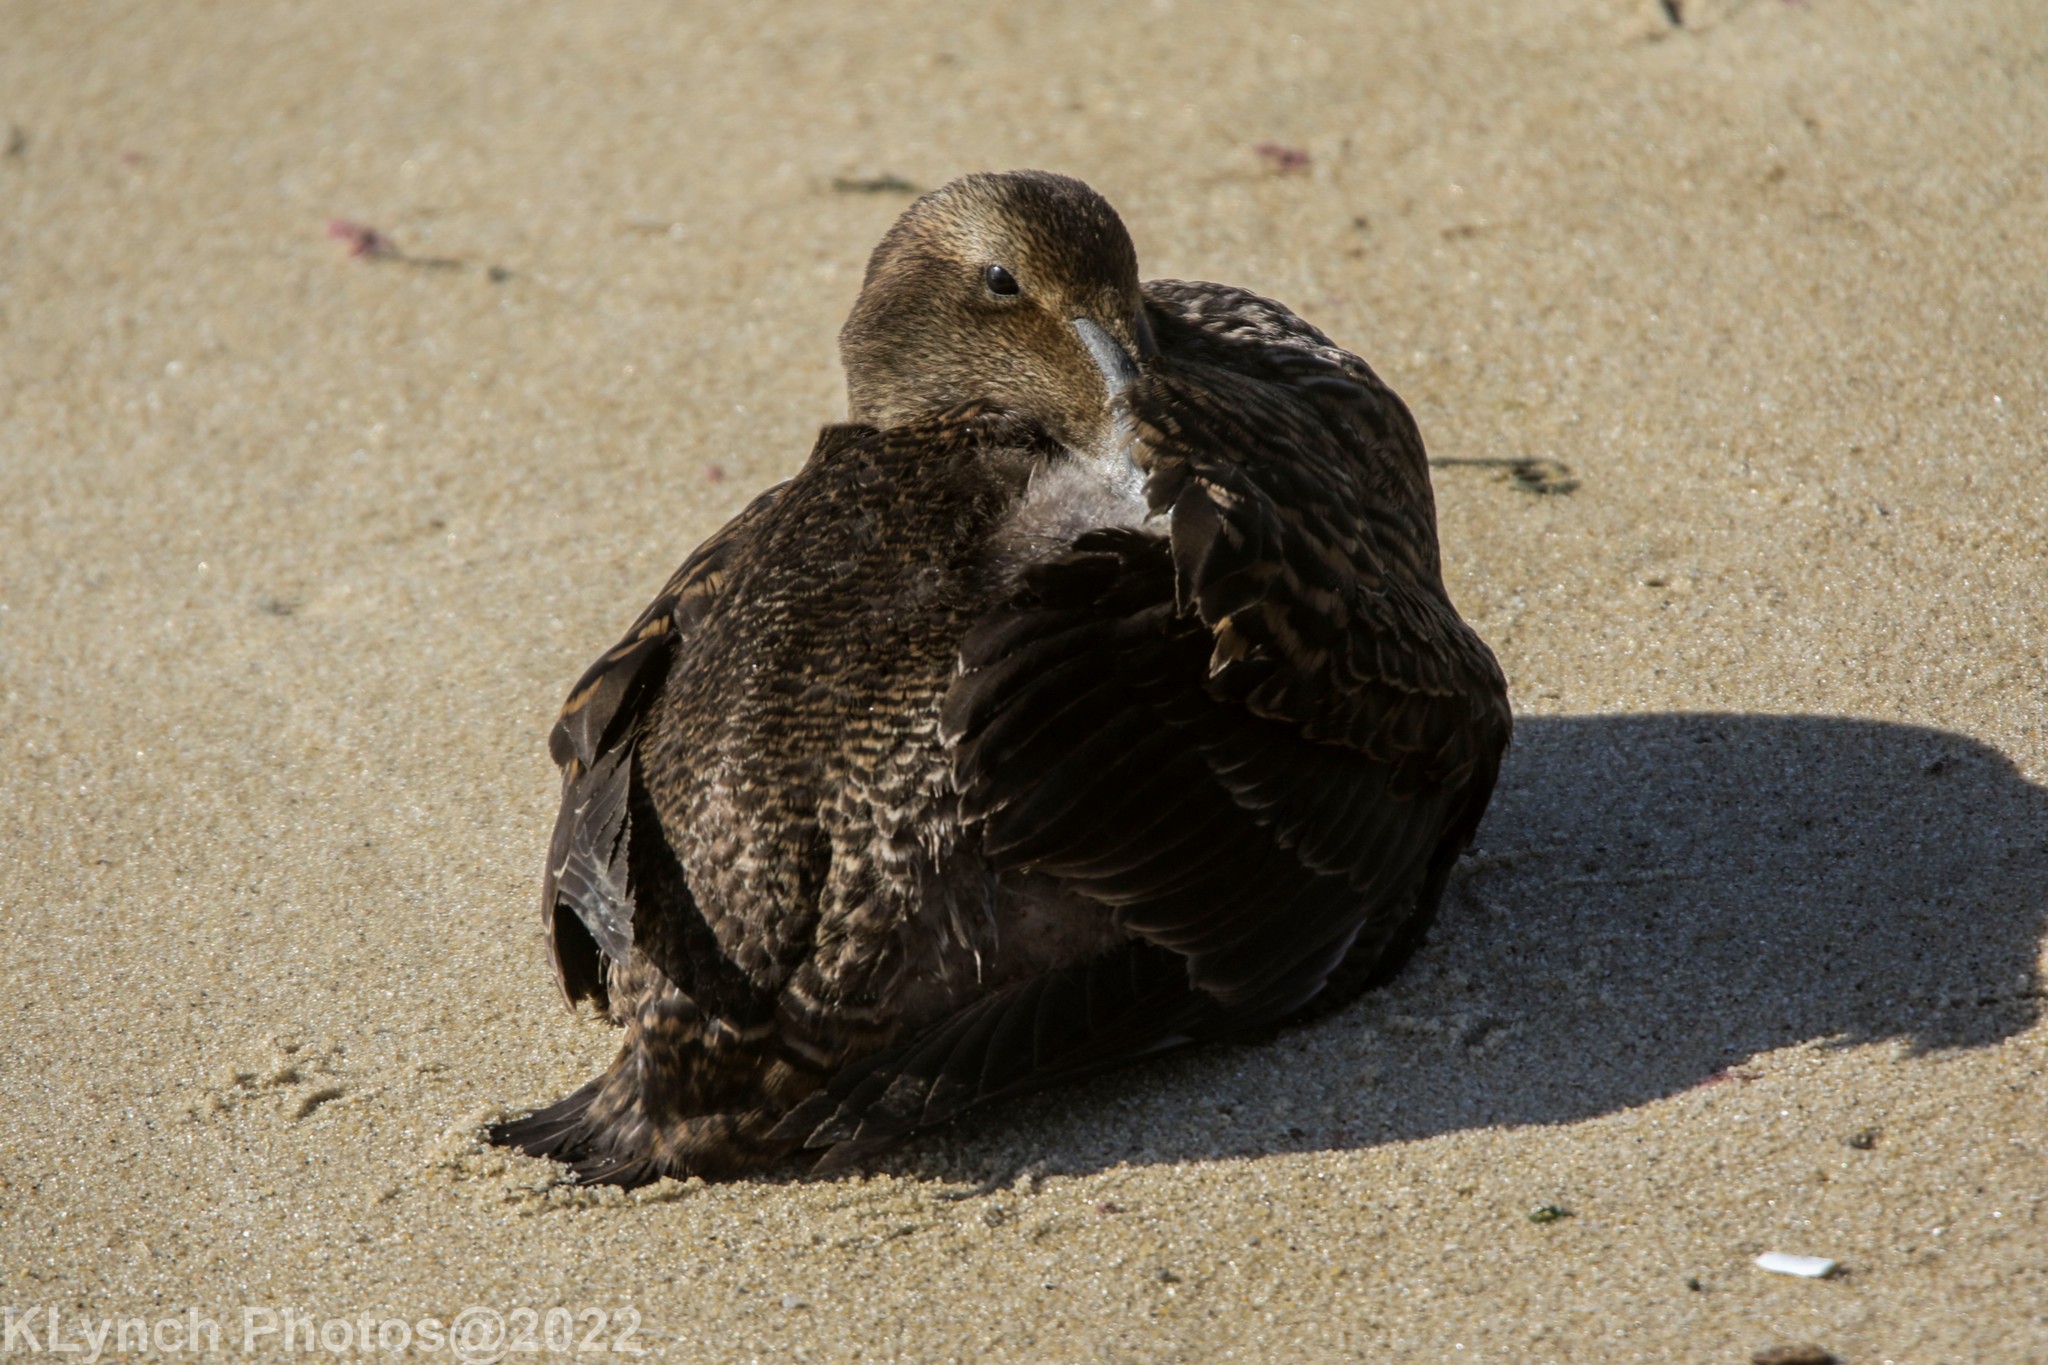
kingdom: Animalia
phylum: Chordata
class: Aves
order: Anseriformes
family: Anatidae
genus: Somateria
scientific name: Somateria mollissima
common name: Common eider
